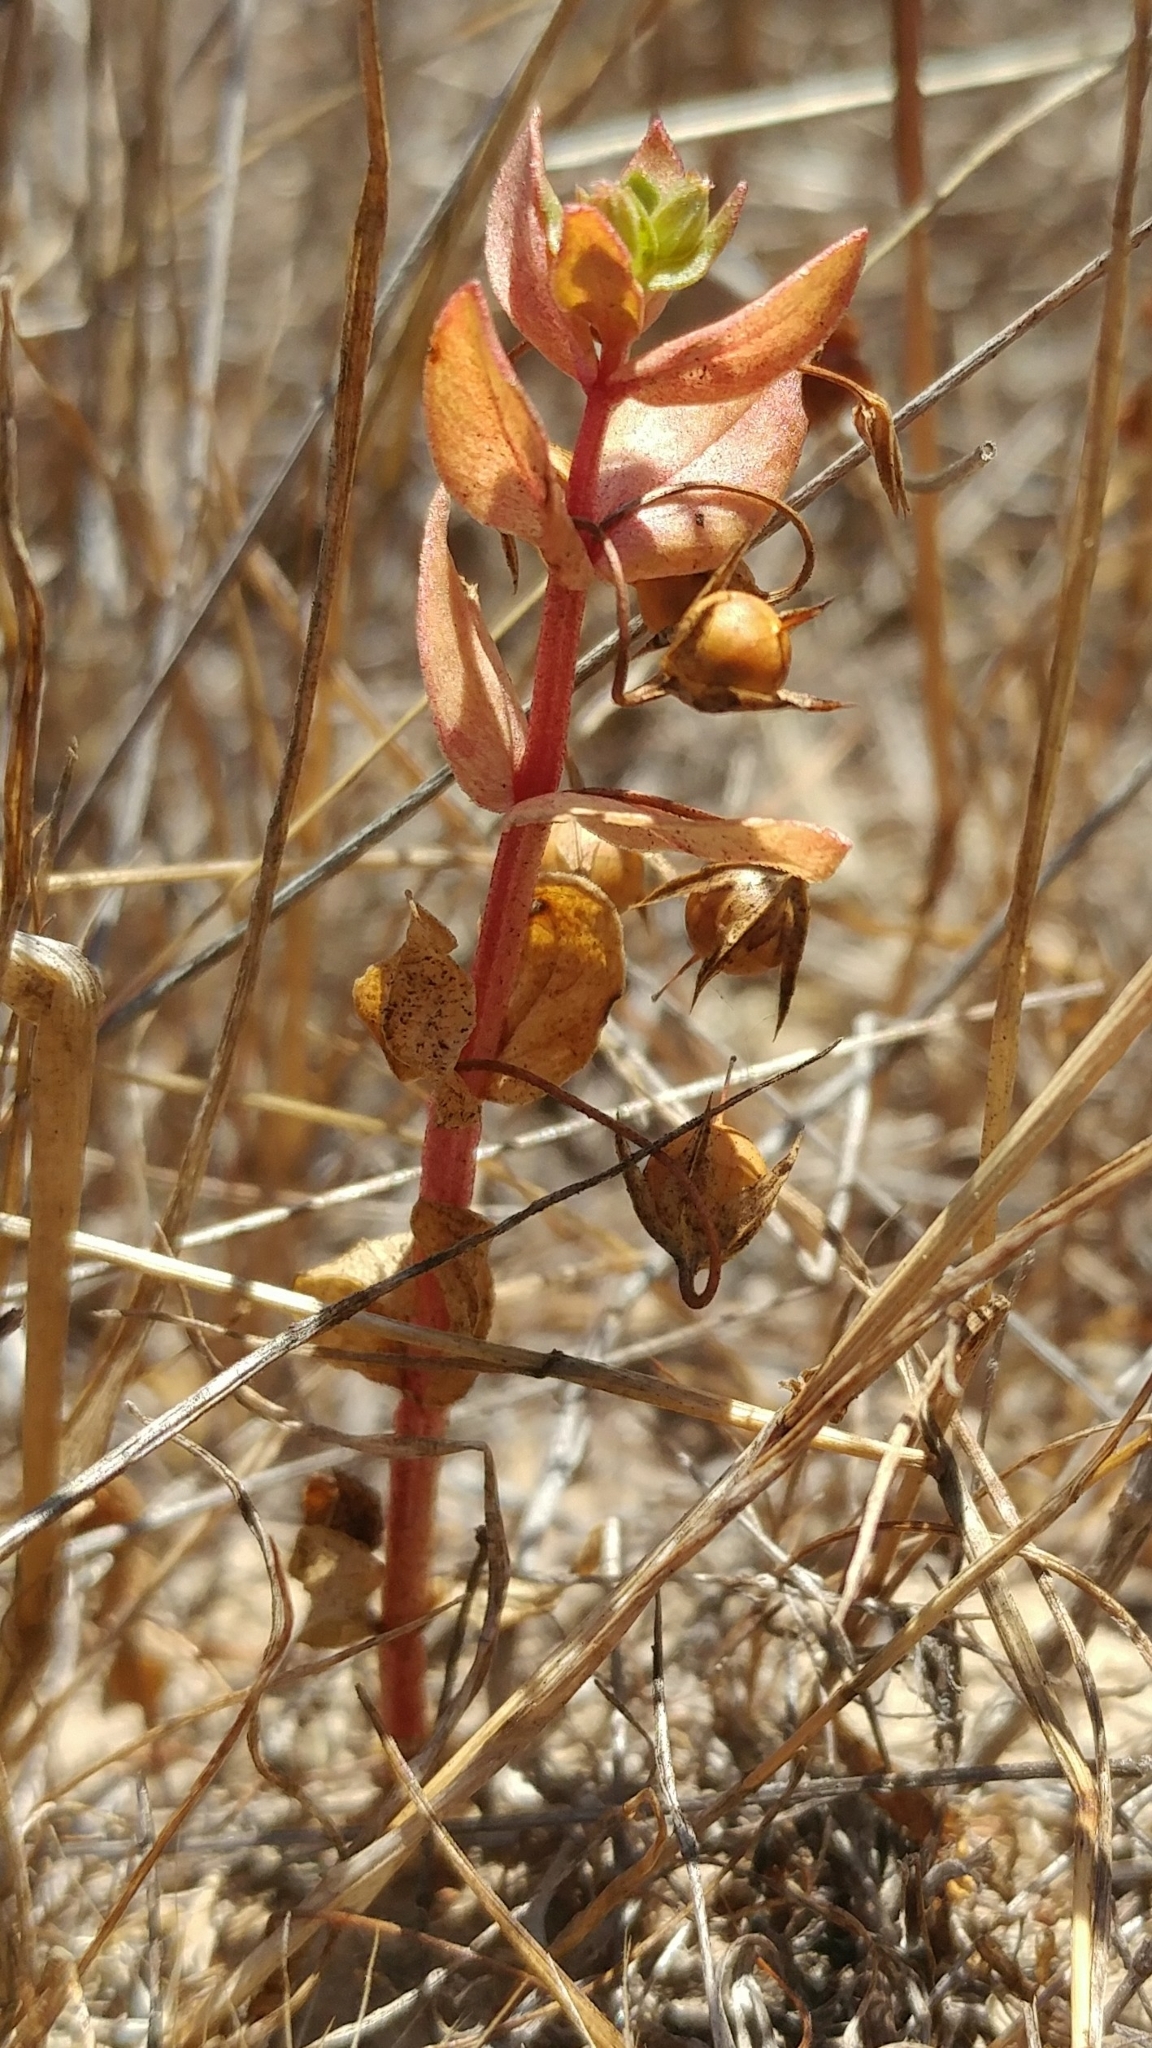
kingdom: Plantae
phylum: Tracheophyta
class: Magnoliopsida
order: Ericales
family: Primulaceae
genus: Lysimachia
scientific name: Lysimachia arvensis
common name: Scarlet pimpernel
